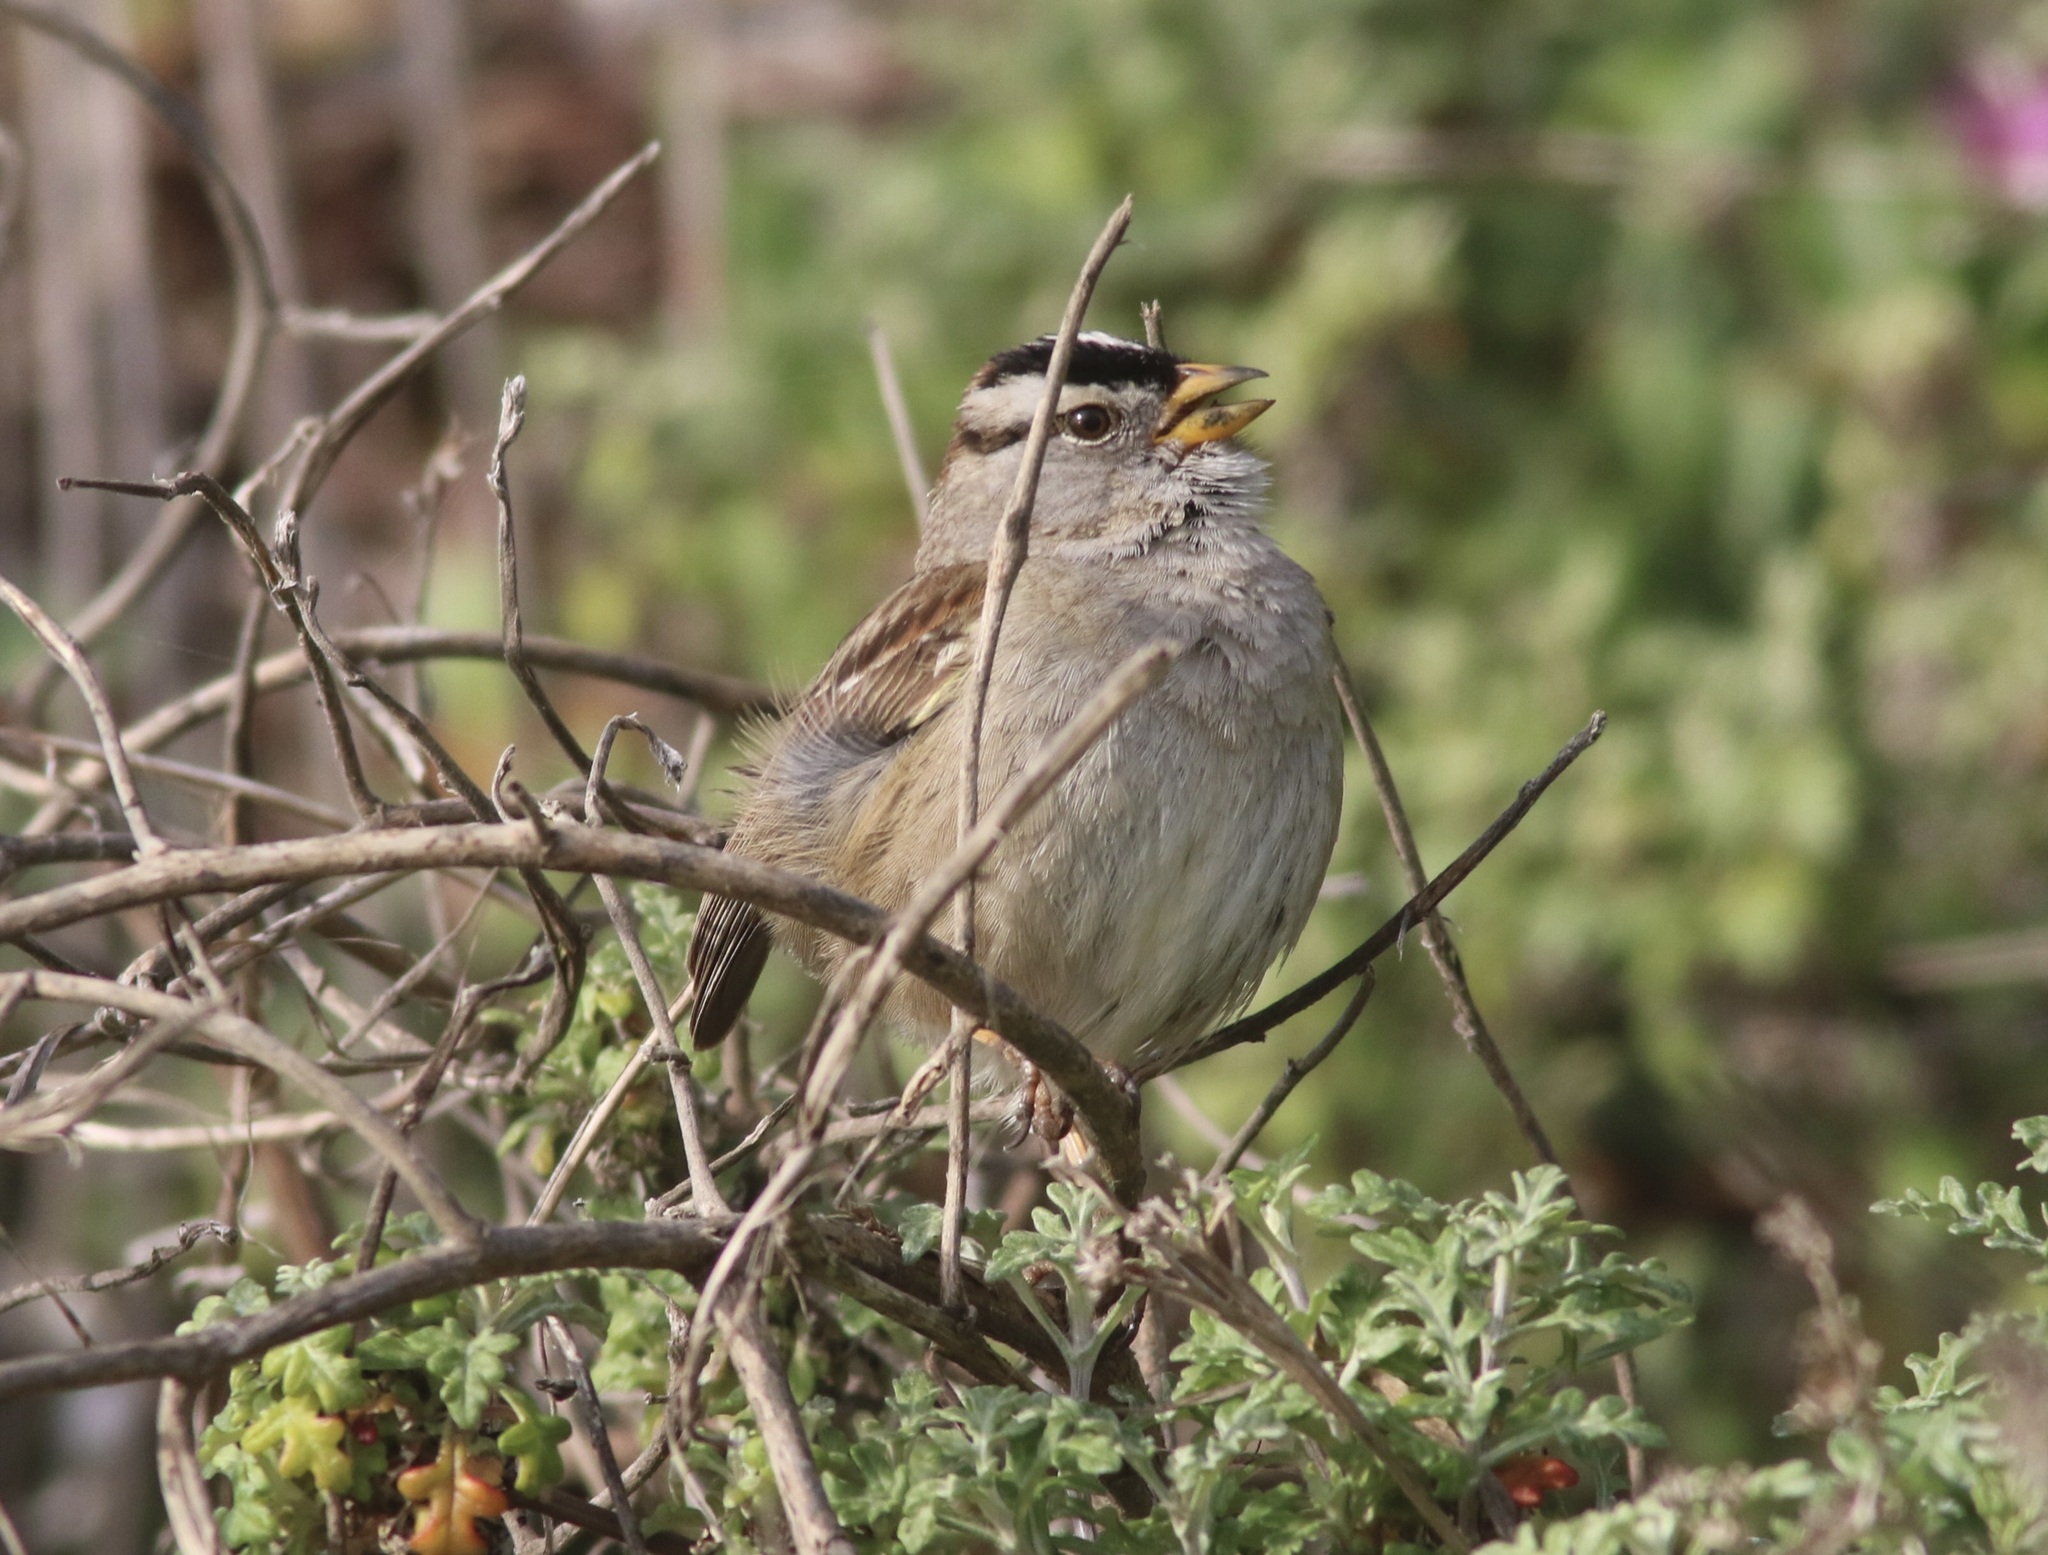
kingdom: Animalia
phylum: Chordata
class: Aves
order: Passeriformes
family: Passerellidae
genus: Zonotrichia
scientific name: Zonotrichia leucophrys
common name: White-crowned sparrow
